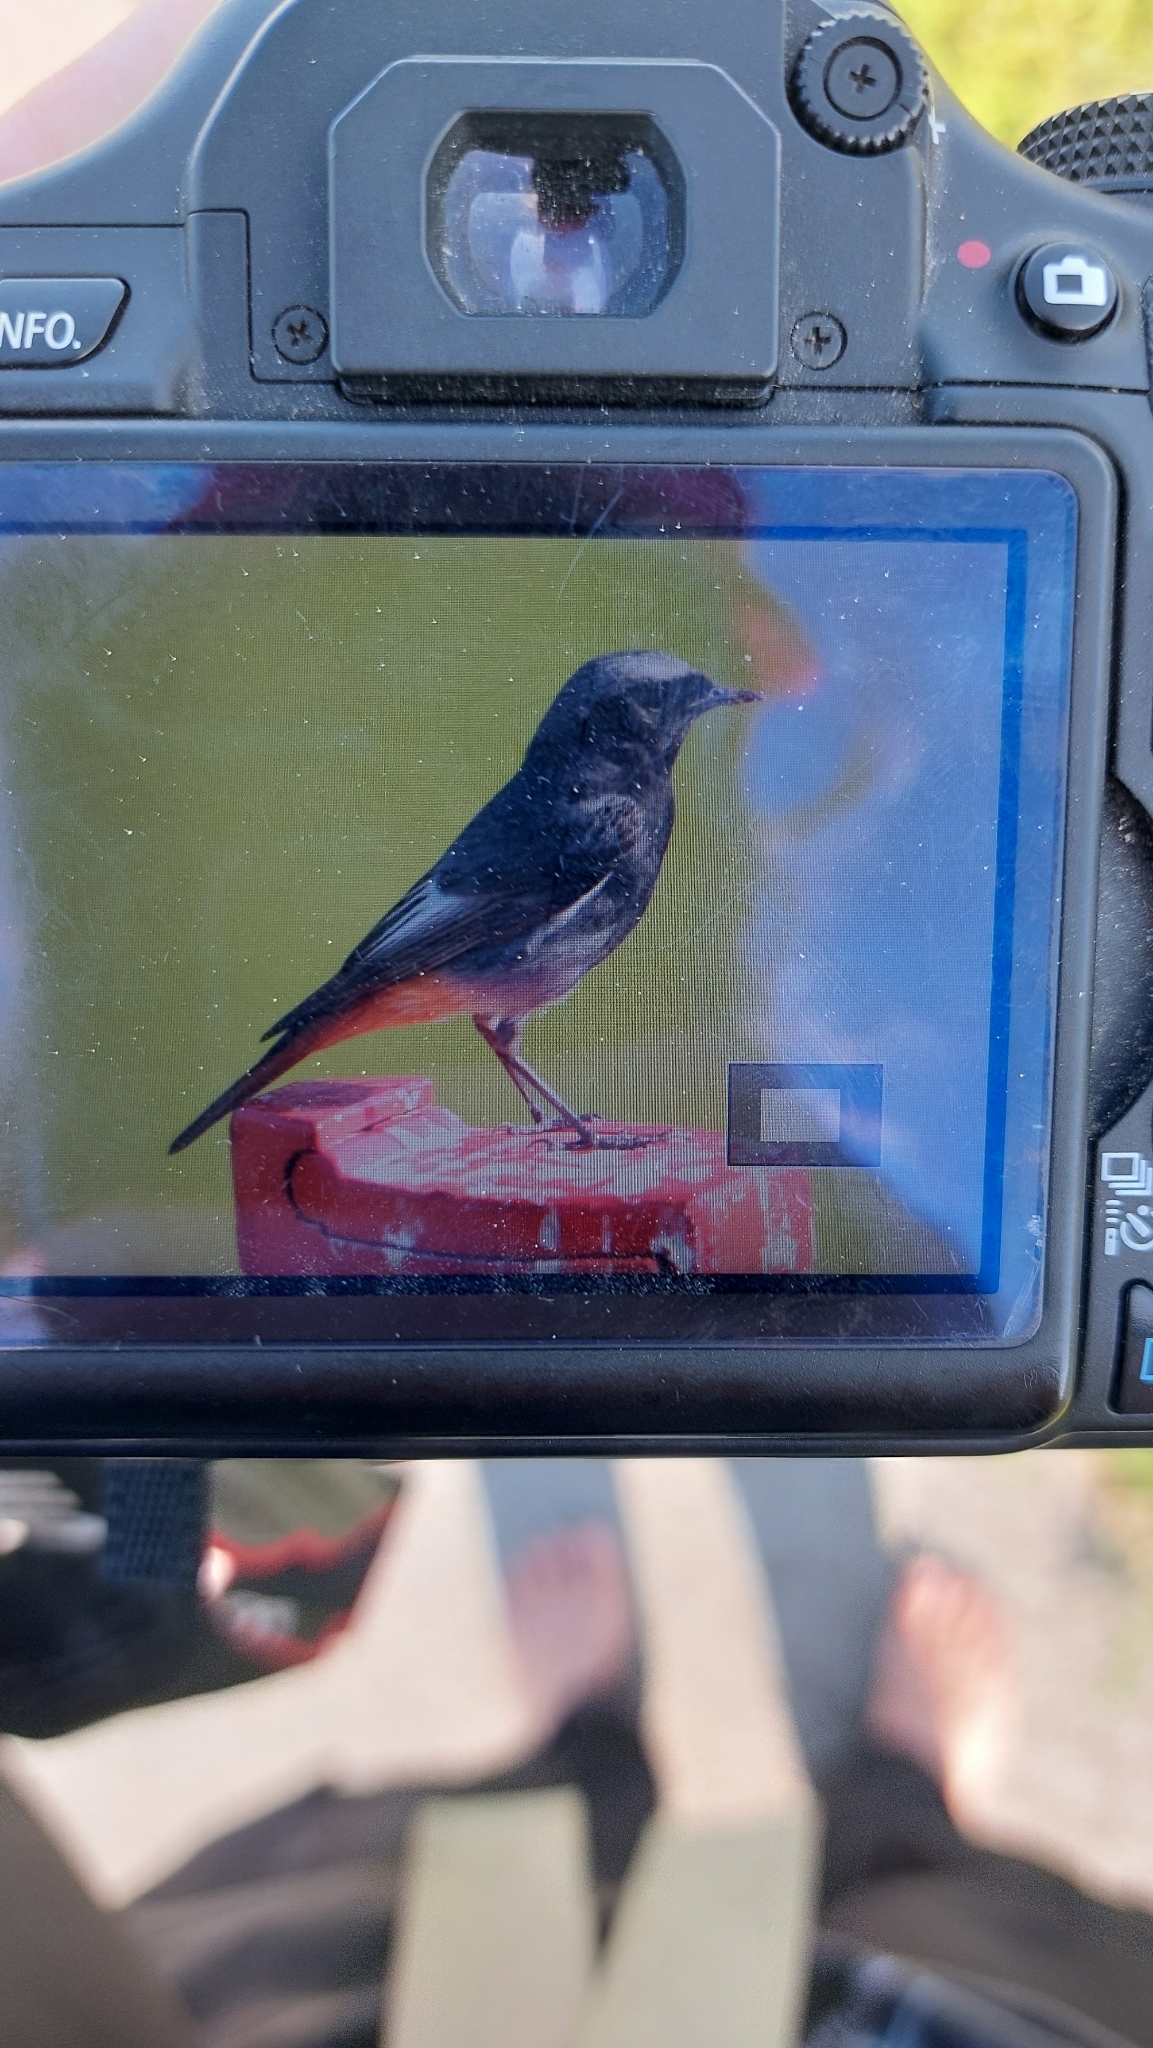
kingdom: Animalia
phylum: Chordata
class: Aves
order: Passeriformes
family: Muscicapidae
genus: Phoenicurus
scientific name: Phoenicurus ochruros
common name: Black redstart
